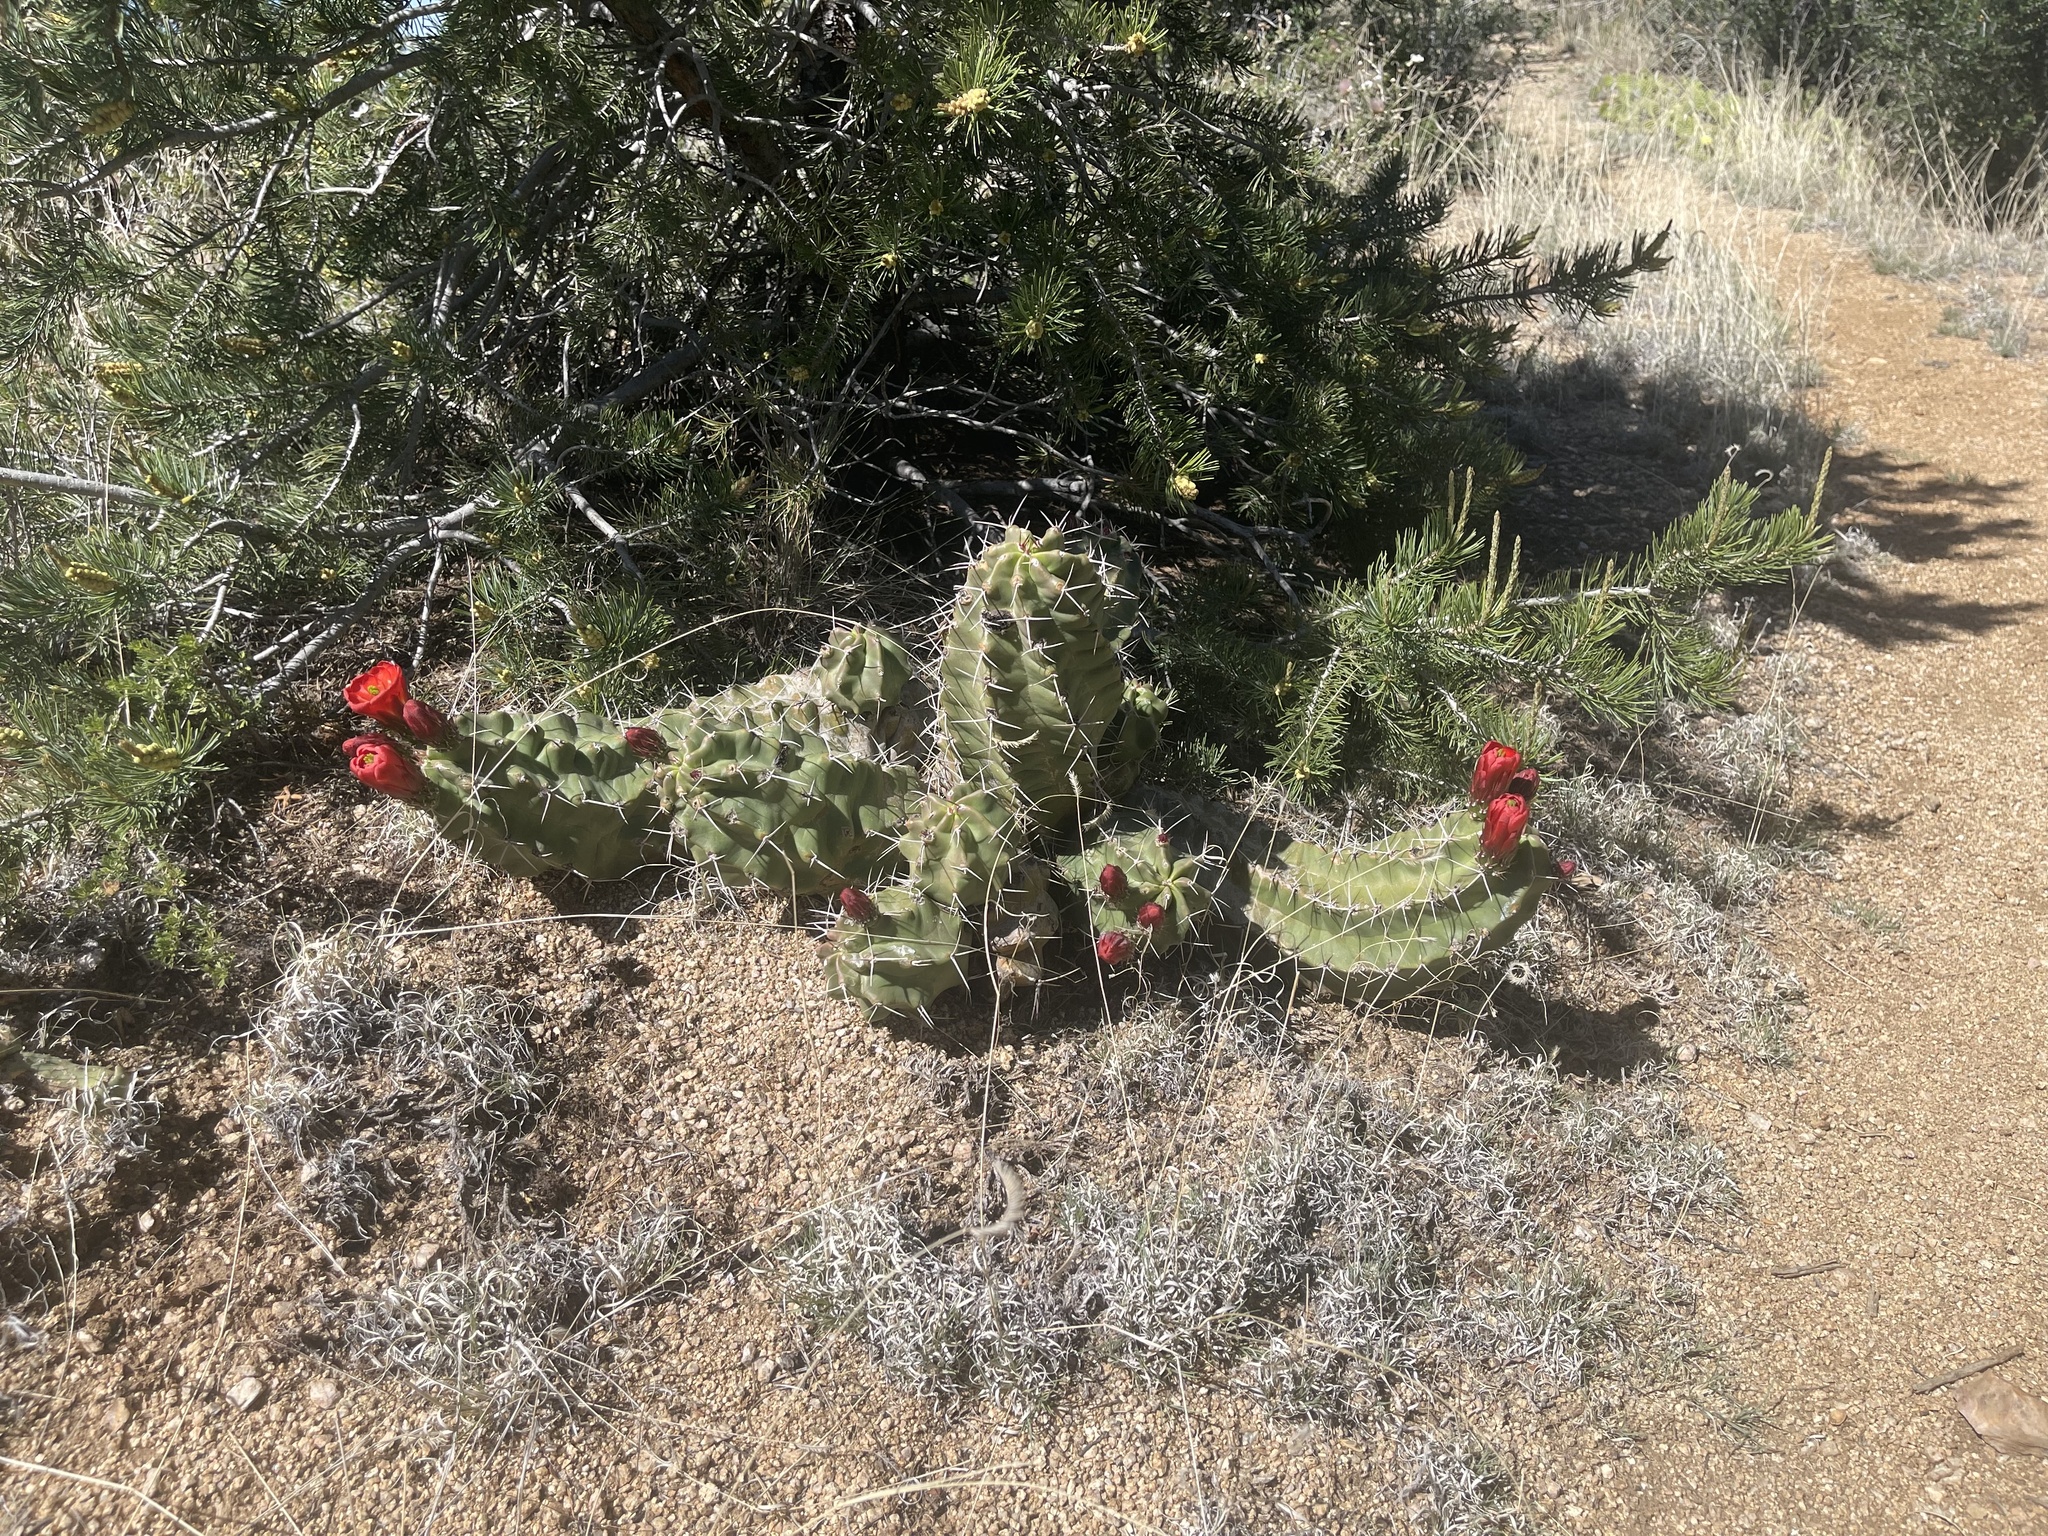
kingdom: Plantae
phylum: Tracheophyta
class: Magnoliopsida
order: Caryophyllales
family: Cactaceae
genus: Echinocereus
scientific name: Echinocereus triglochidiatus
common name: Claretcup hedgehog
